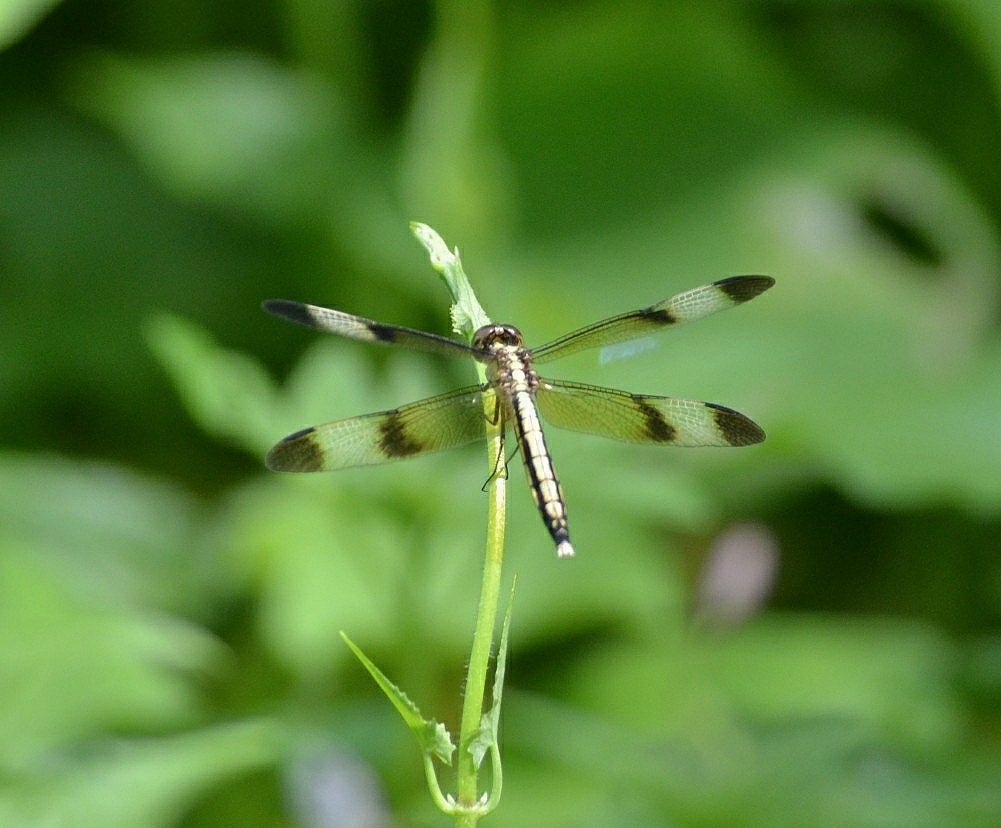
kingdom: Animalia
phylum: Arthropoda
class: Insecta
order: Odonata
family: Libellulidae
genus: Neurothemis
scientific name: Neurothemis tullia
